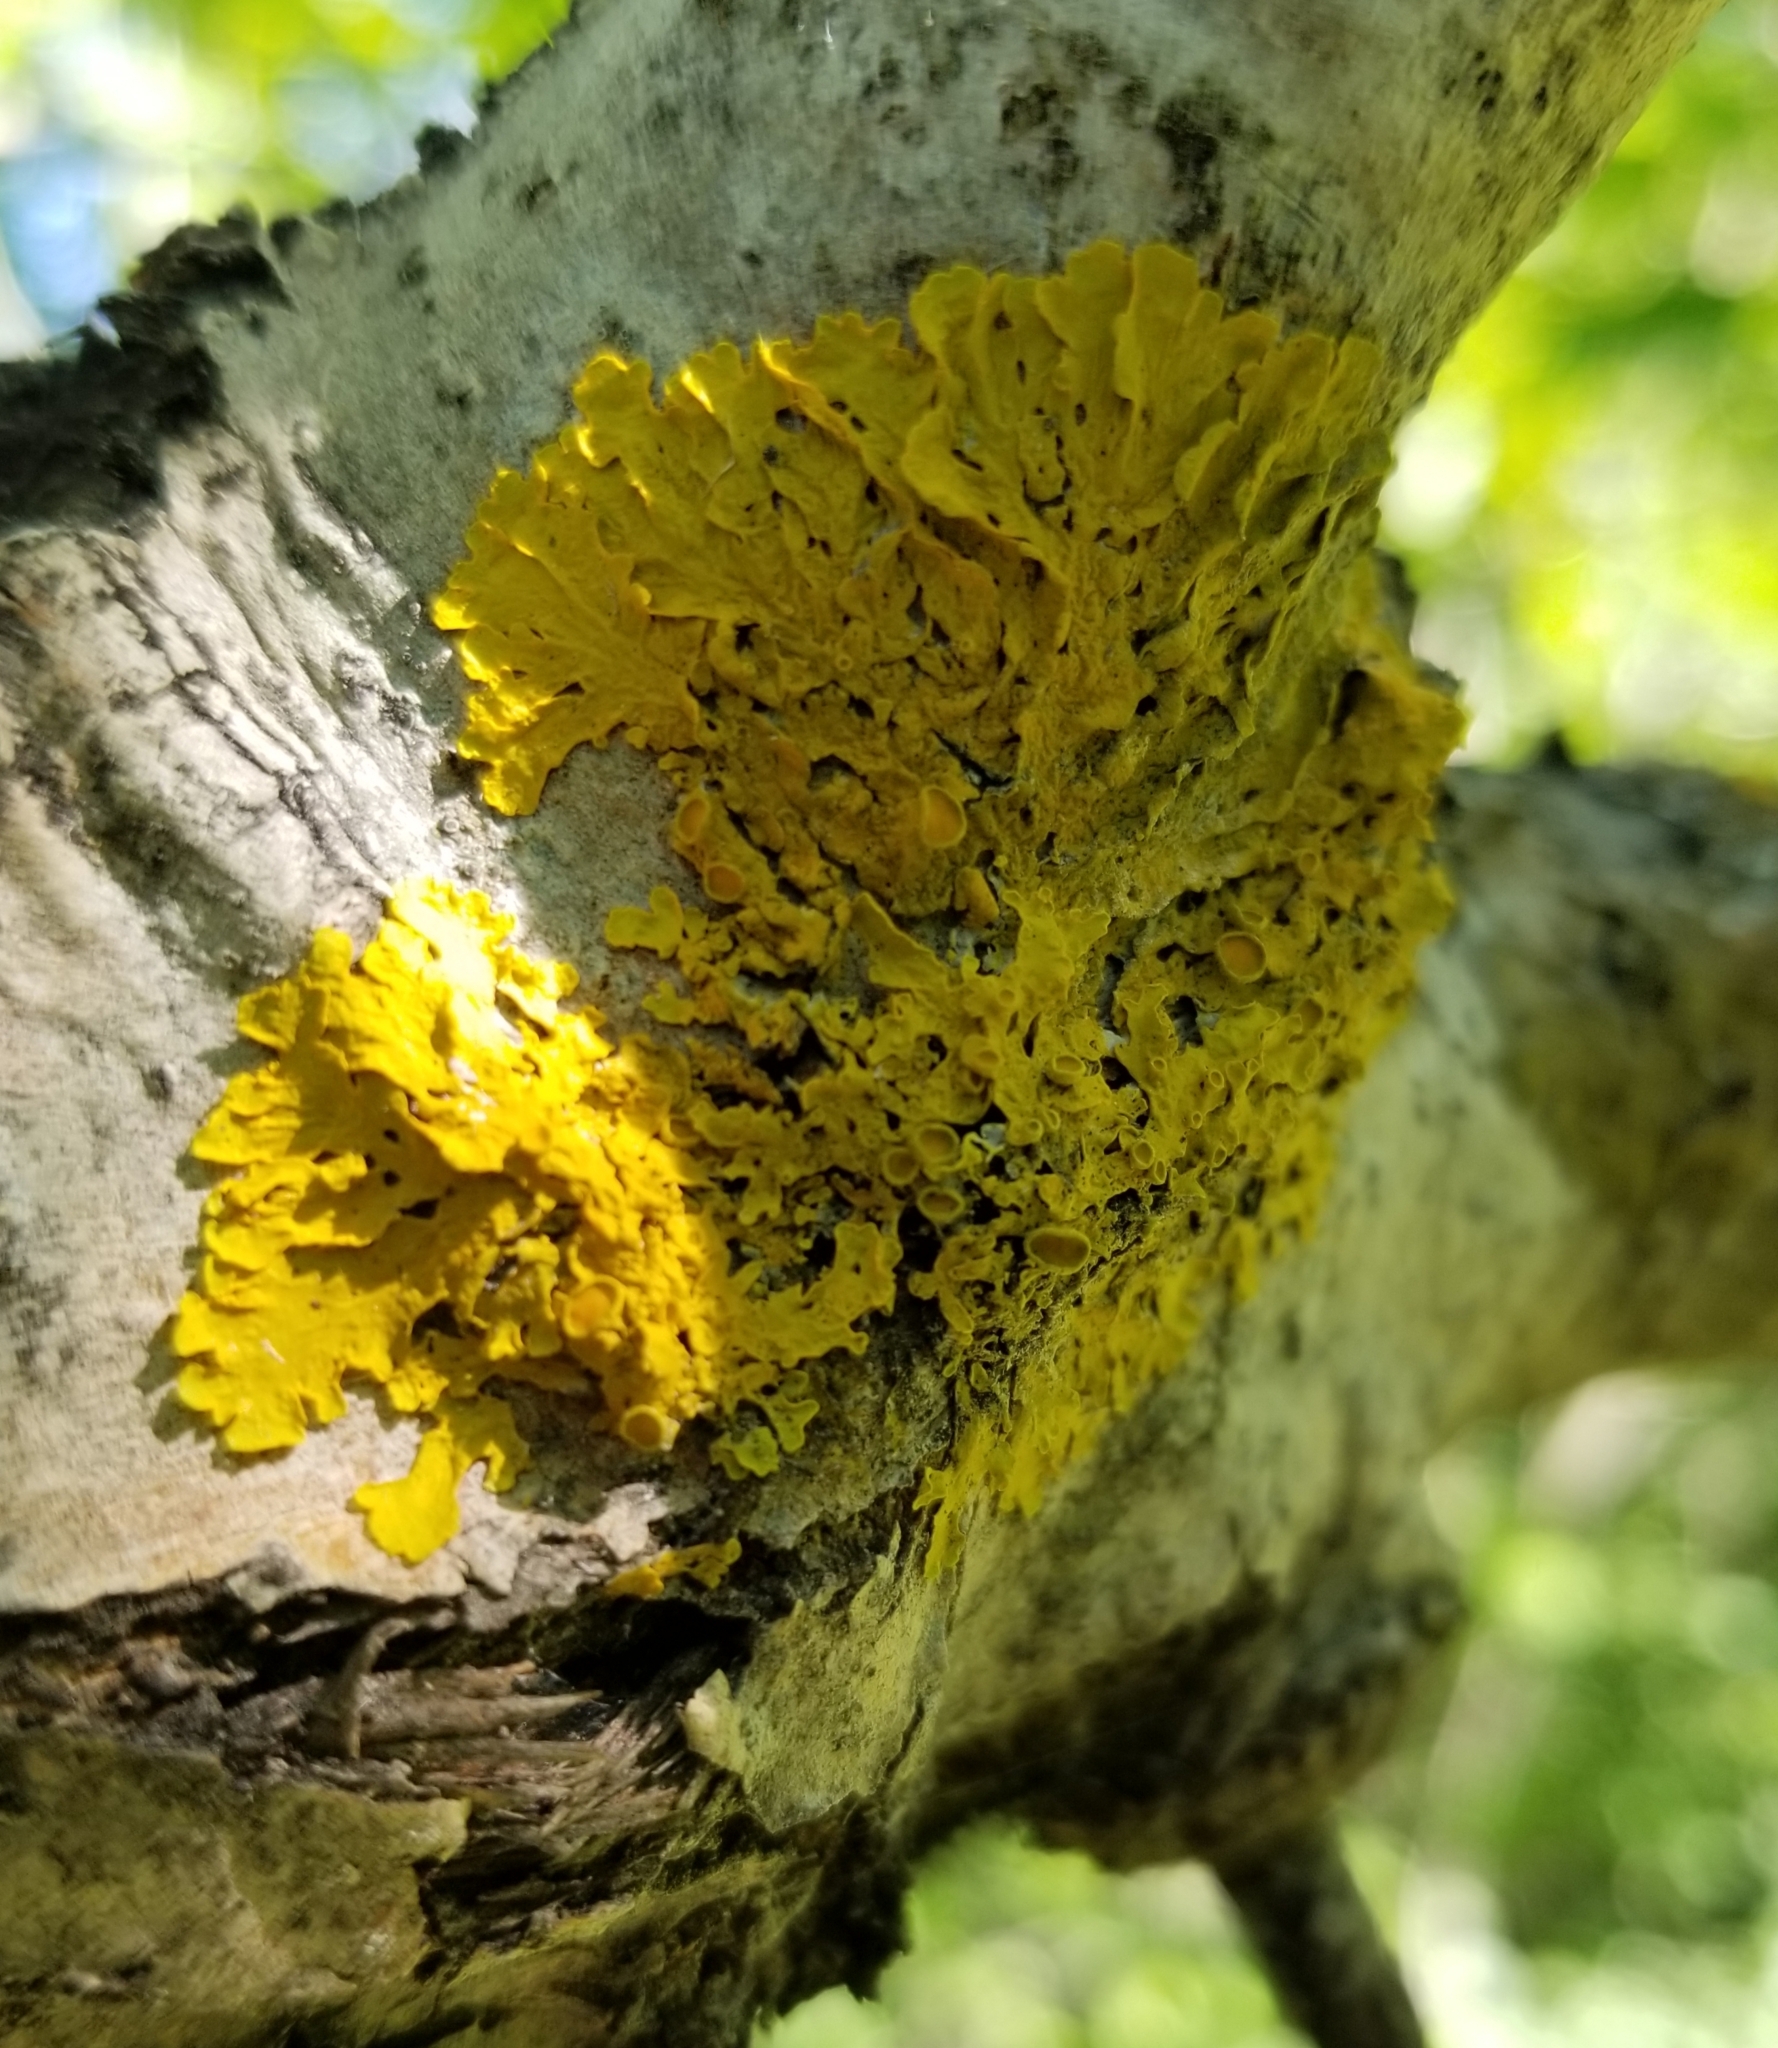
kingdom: Fungi
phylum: Ascomycota
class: Lecanoromycetes
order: Teloschistales
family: Teloschistaceae
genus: Xanthoria
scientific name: Xanthoria parietina
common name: Common orange lichen
